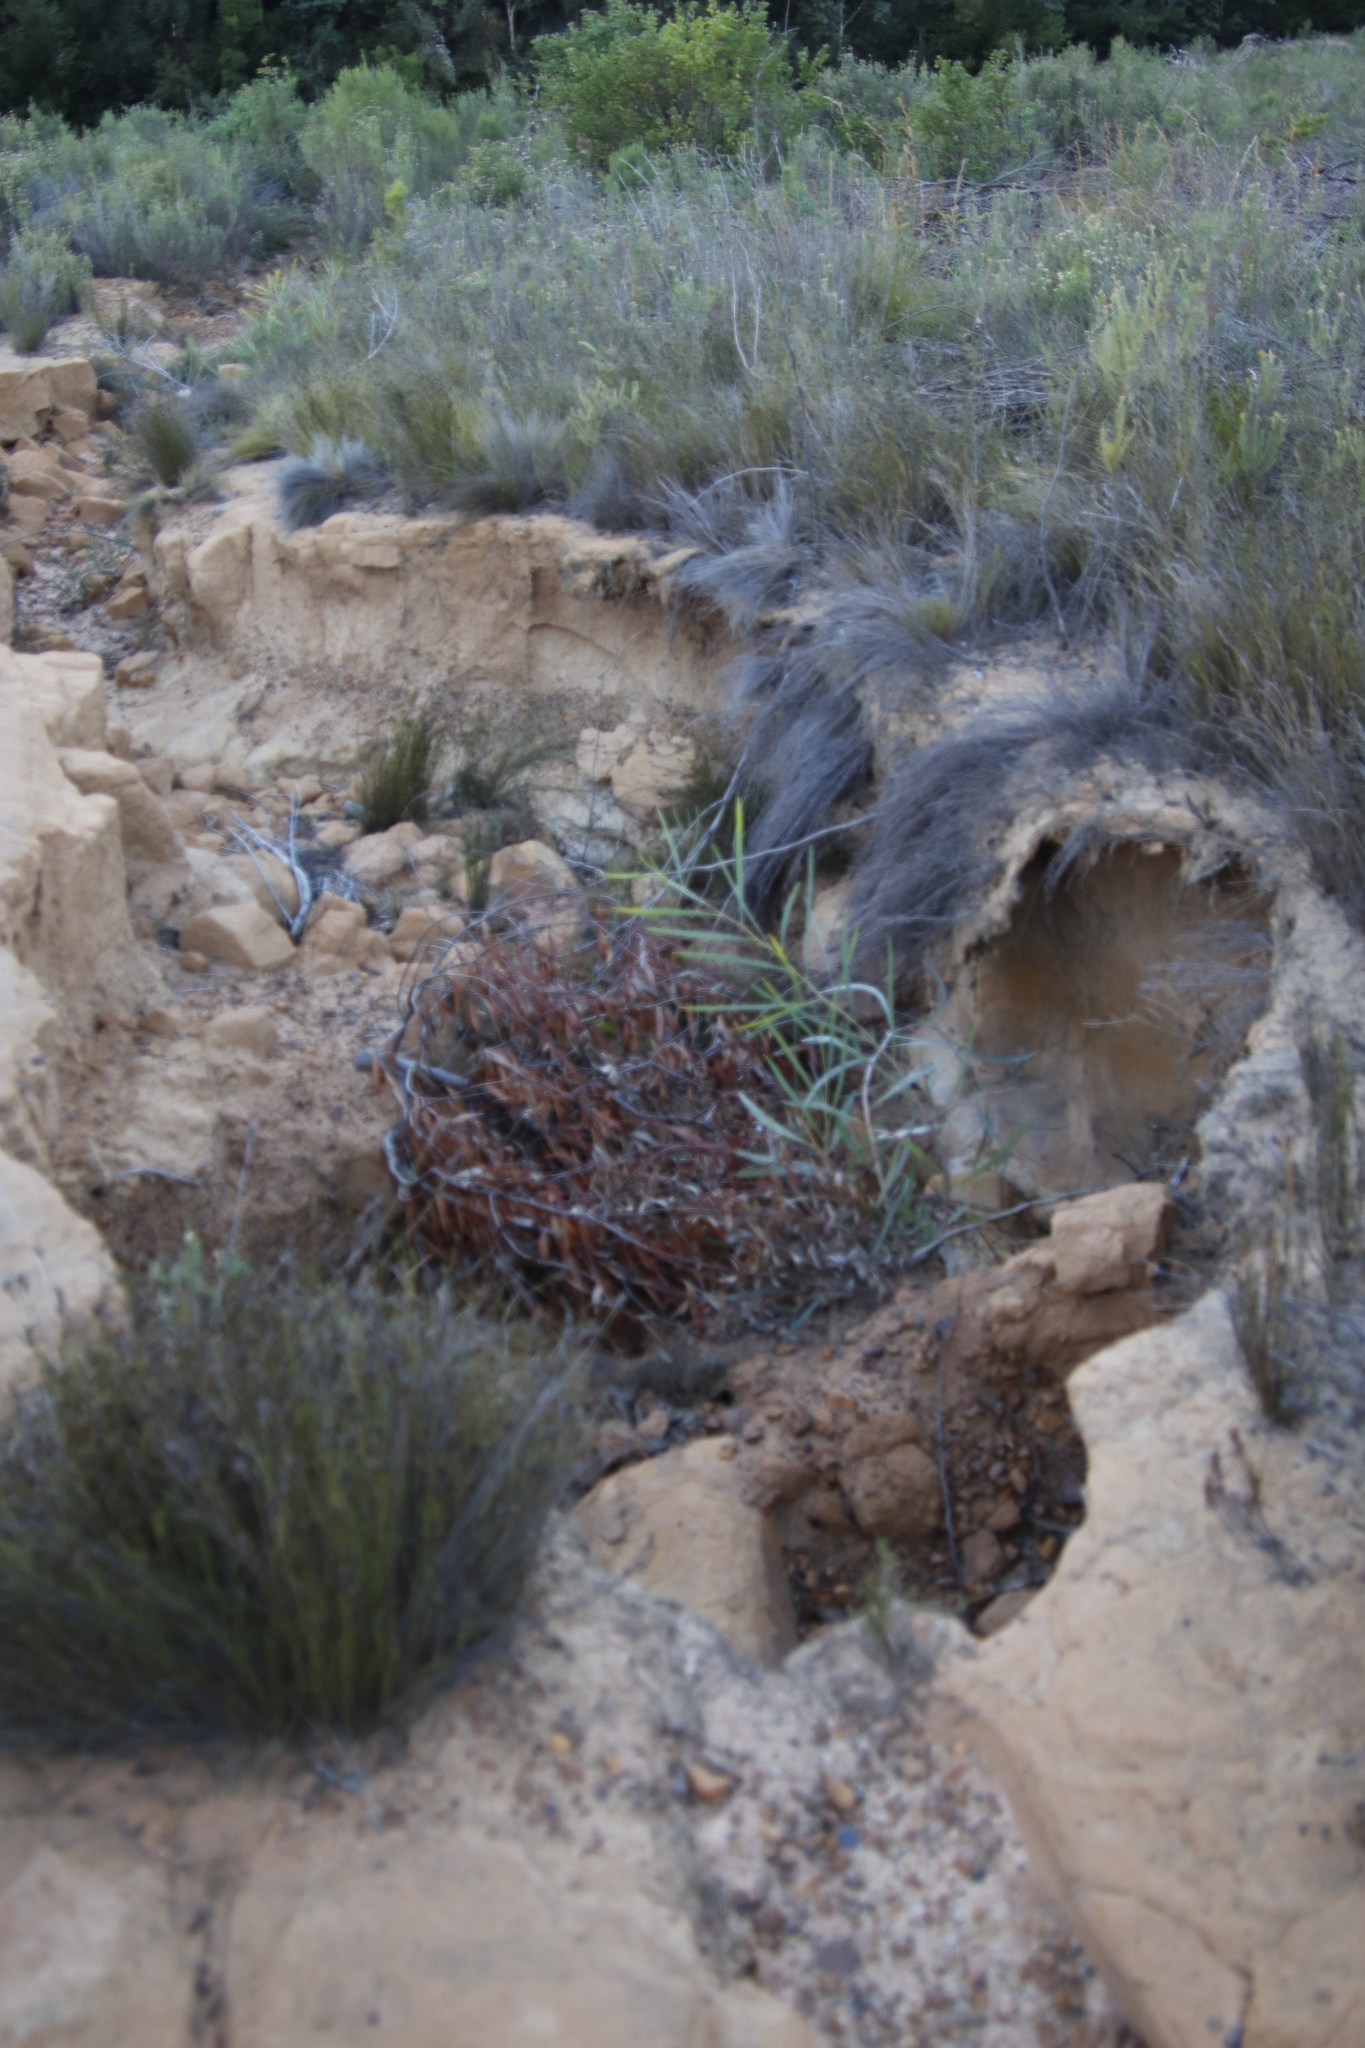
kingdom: Plantae
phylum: Tracheophyta
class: Magnoliopsida
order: Fabales
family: Fabaceae
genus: Acacia
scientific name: Acacia saligna
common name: Orange wattle
